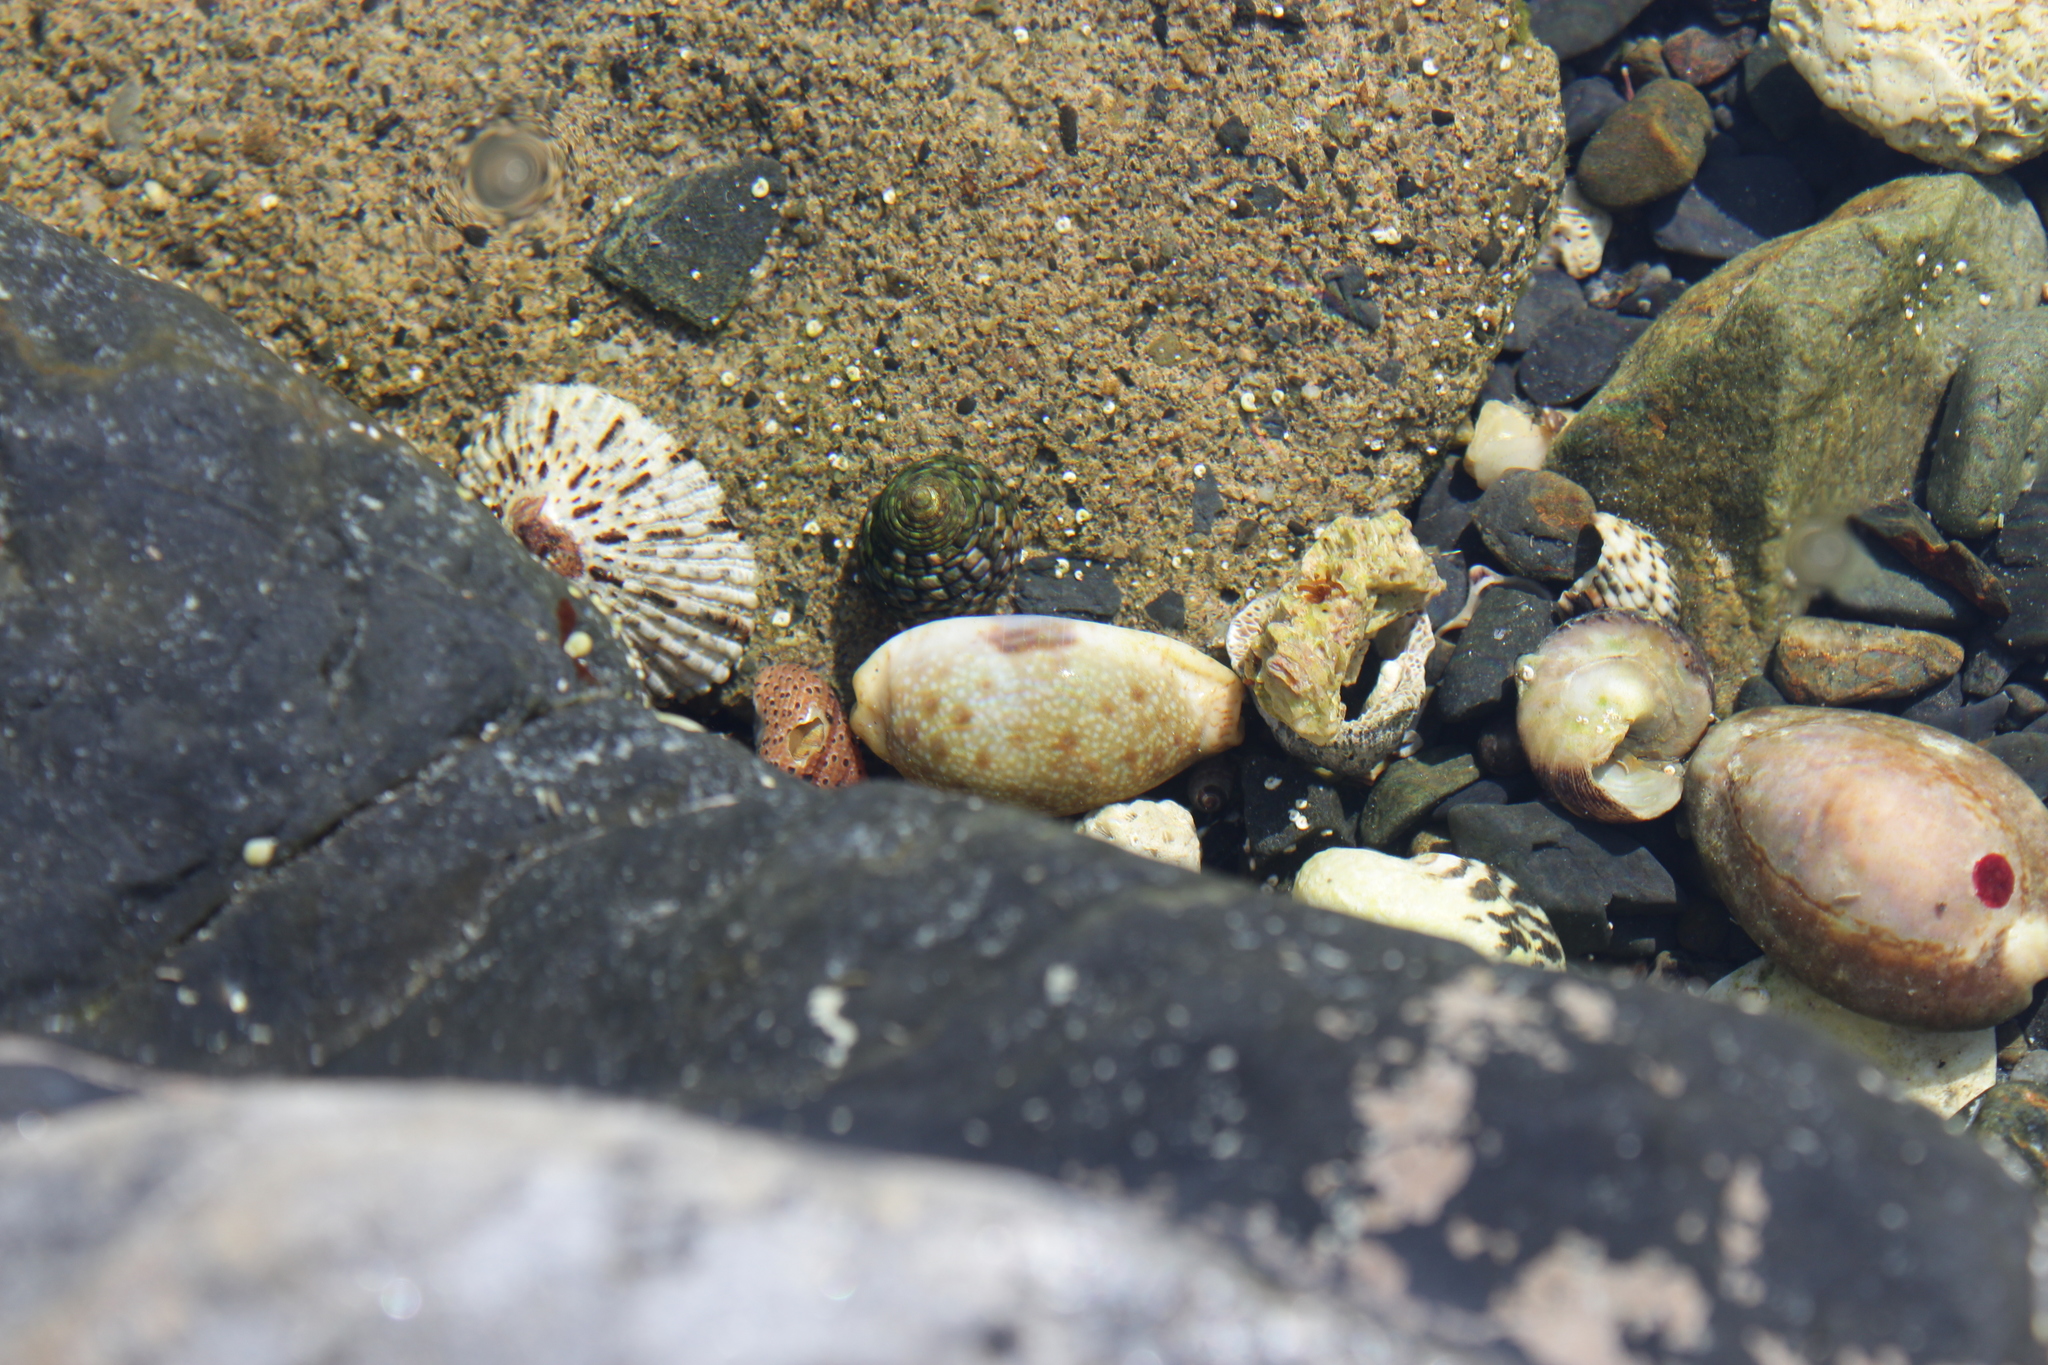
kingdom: Animalia
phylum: Mollusca
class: Gastropoda
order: Littorinimorpha
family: Cypraeidae
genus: Naria
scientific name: Naria erosa
